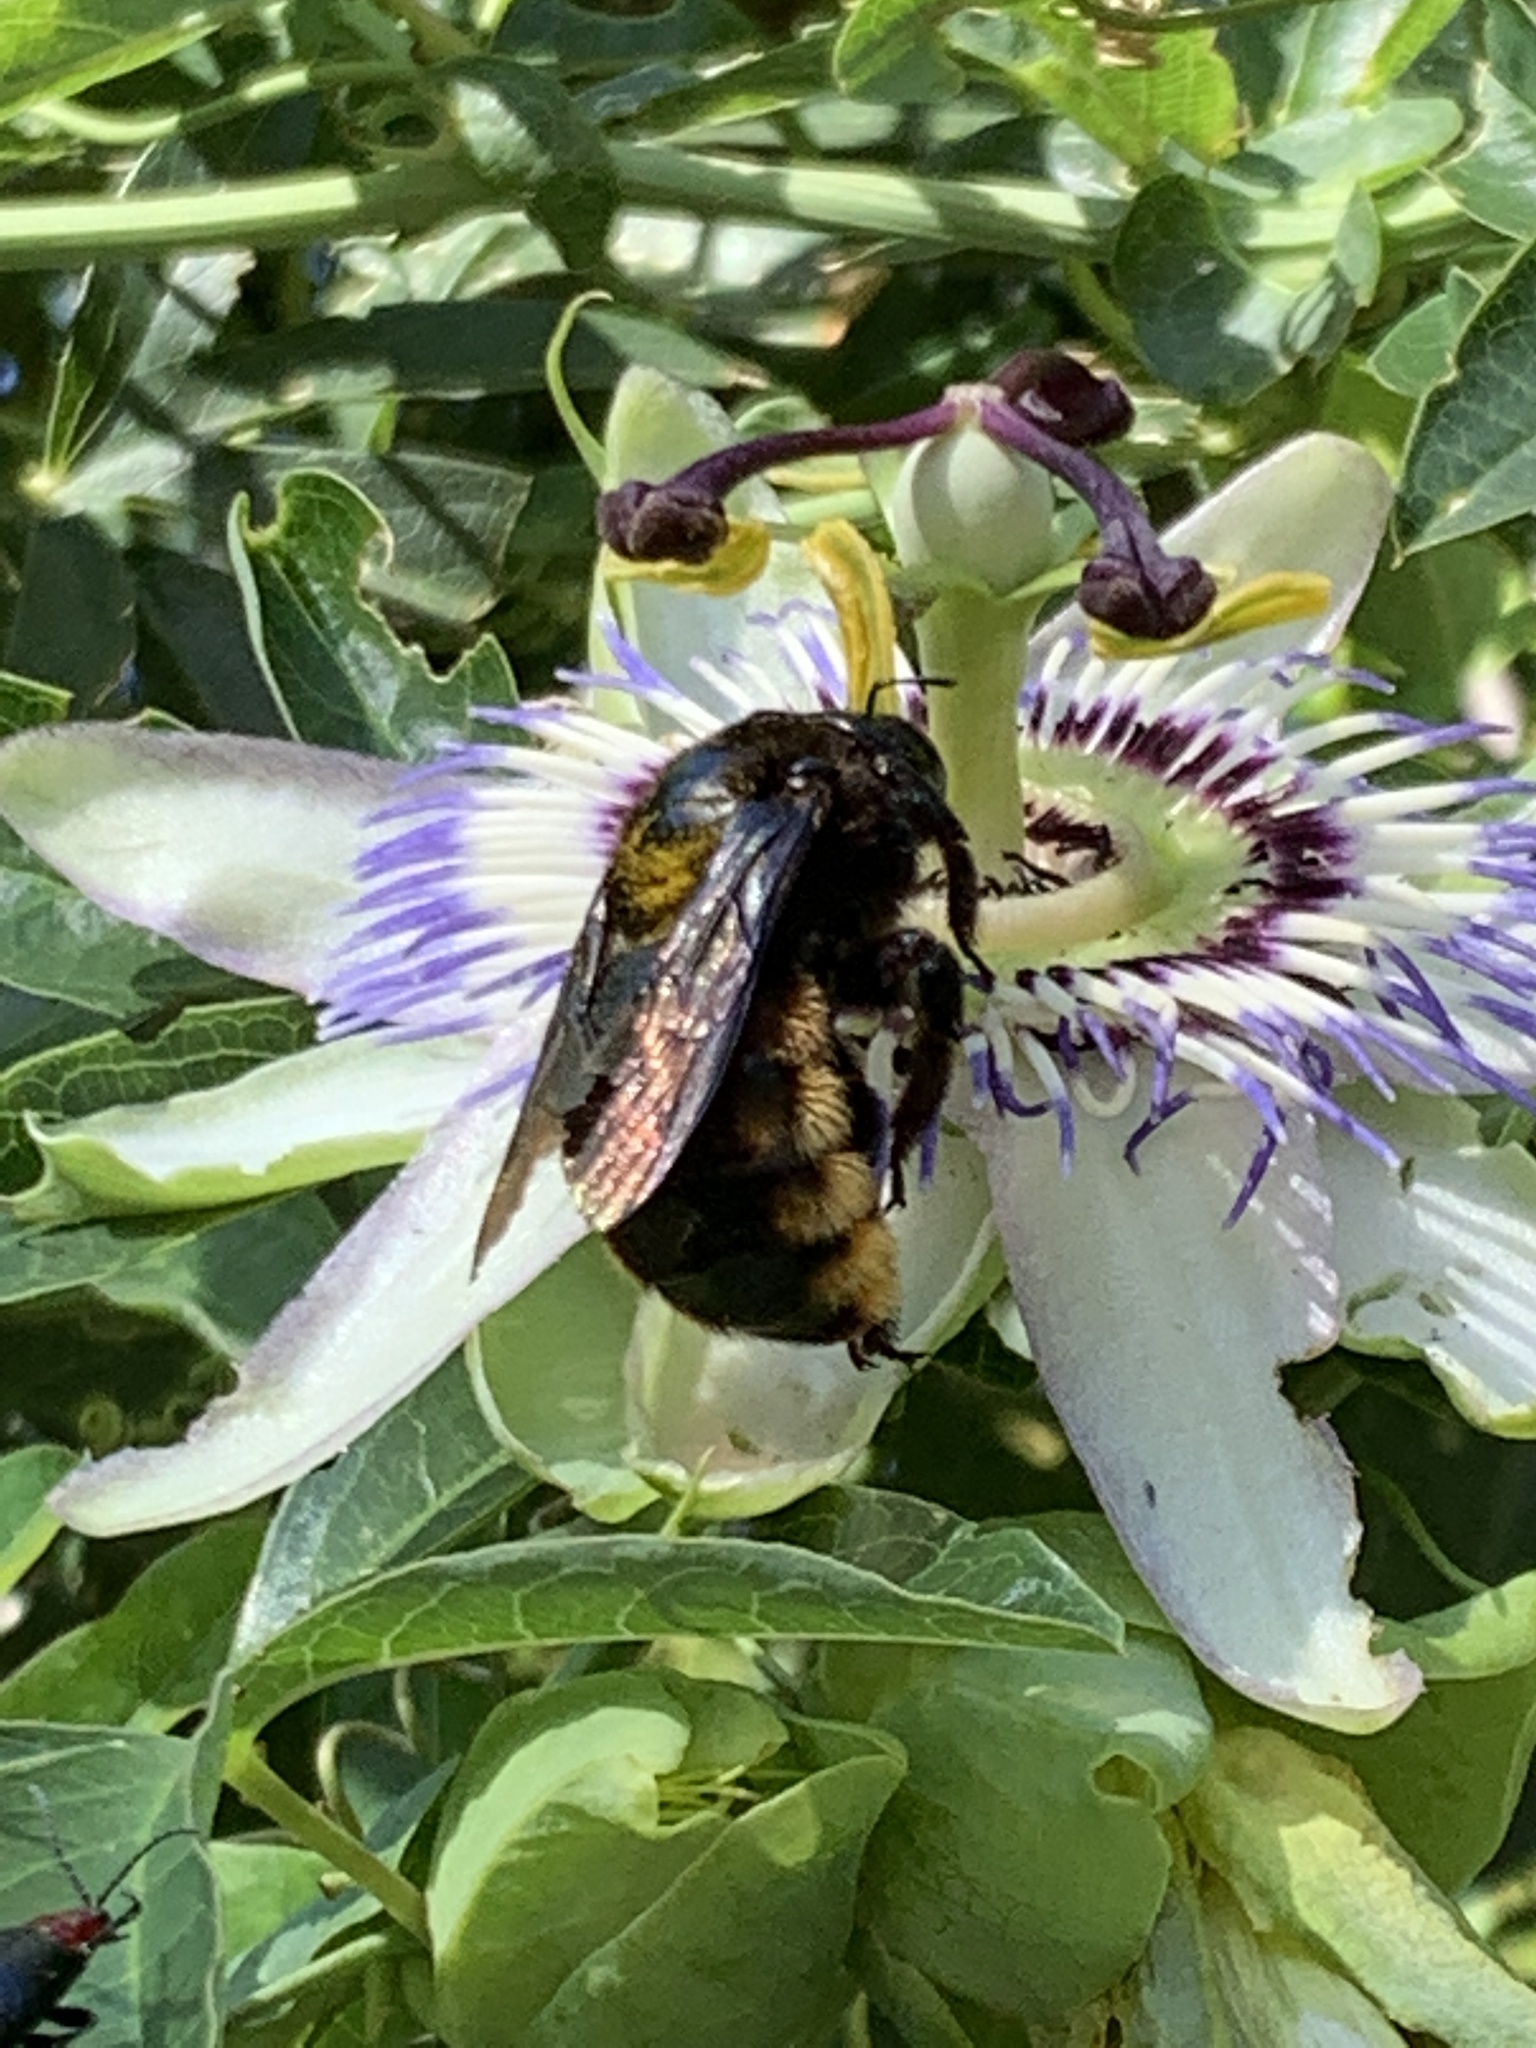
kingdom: Animalia
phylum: Arthropoda
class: Insecta
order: Hymenoptera
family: Apidae
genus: Xylocopa
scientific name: Xylocopa augusti
